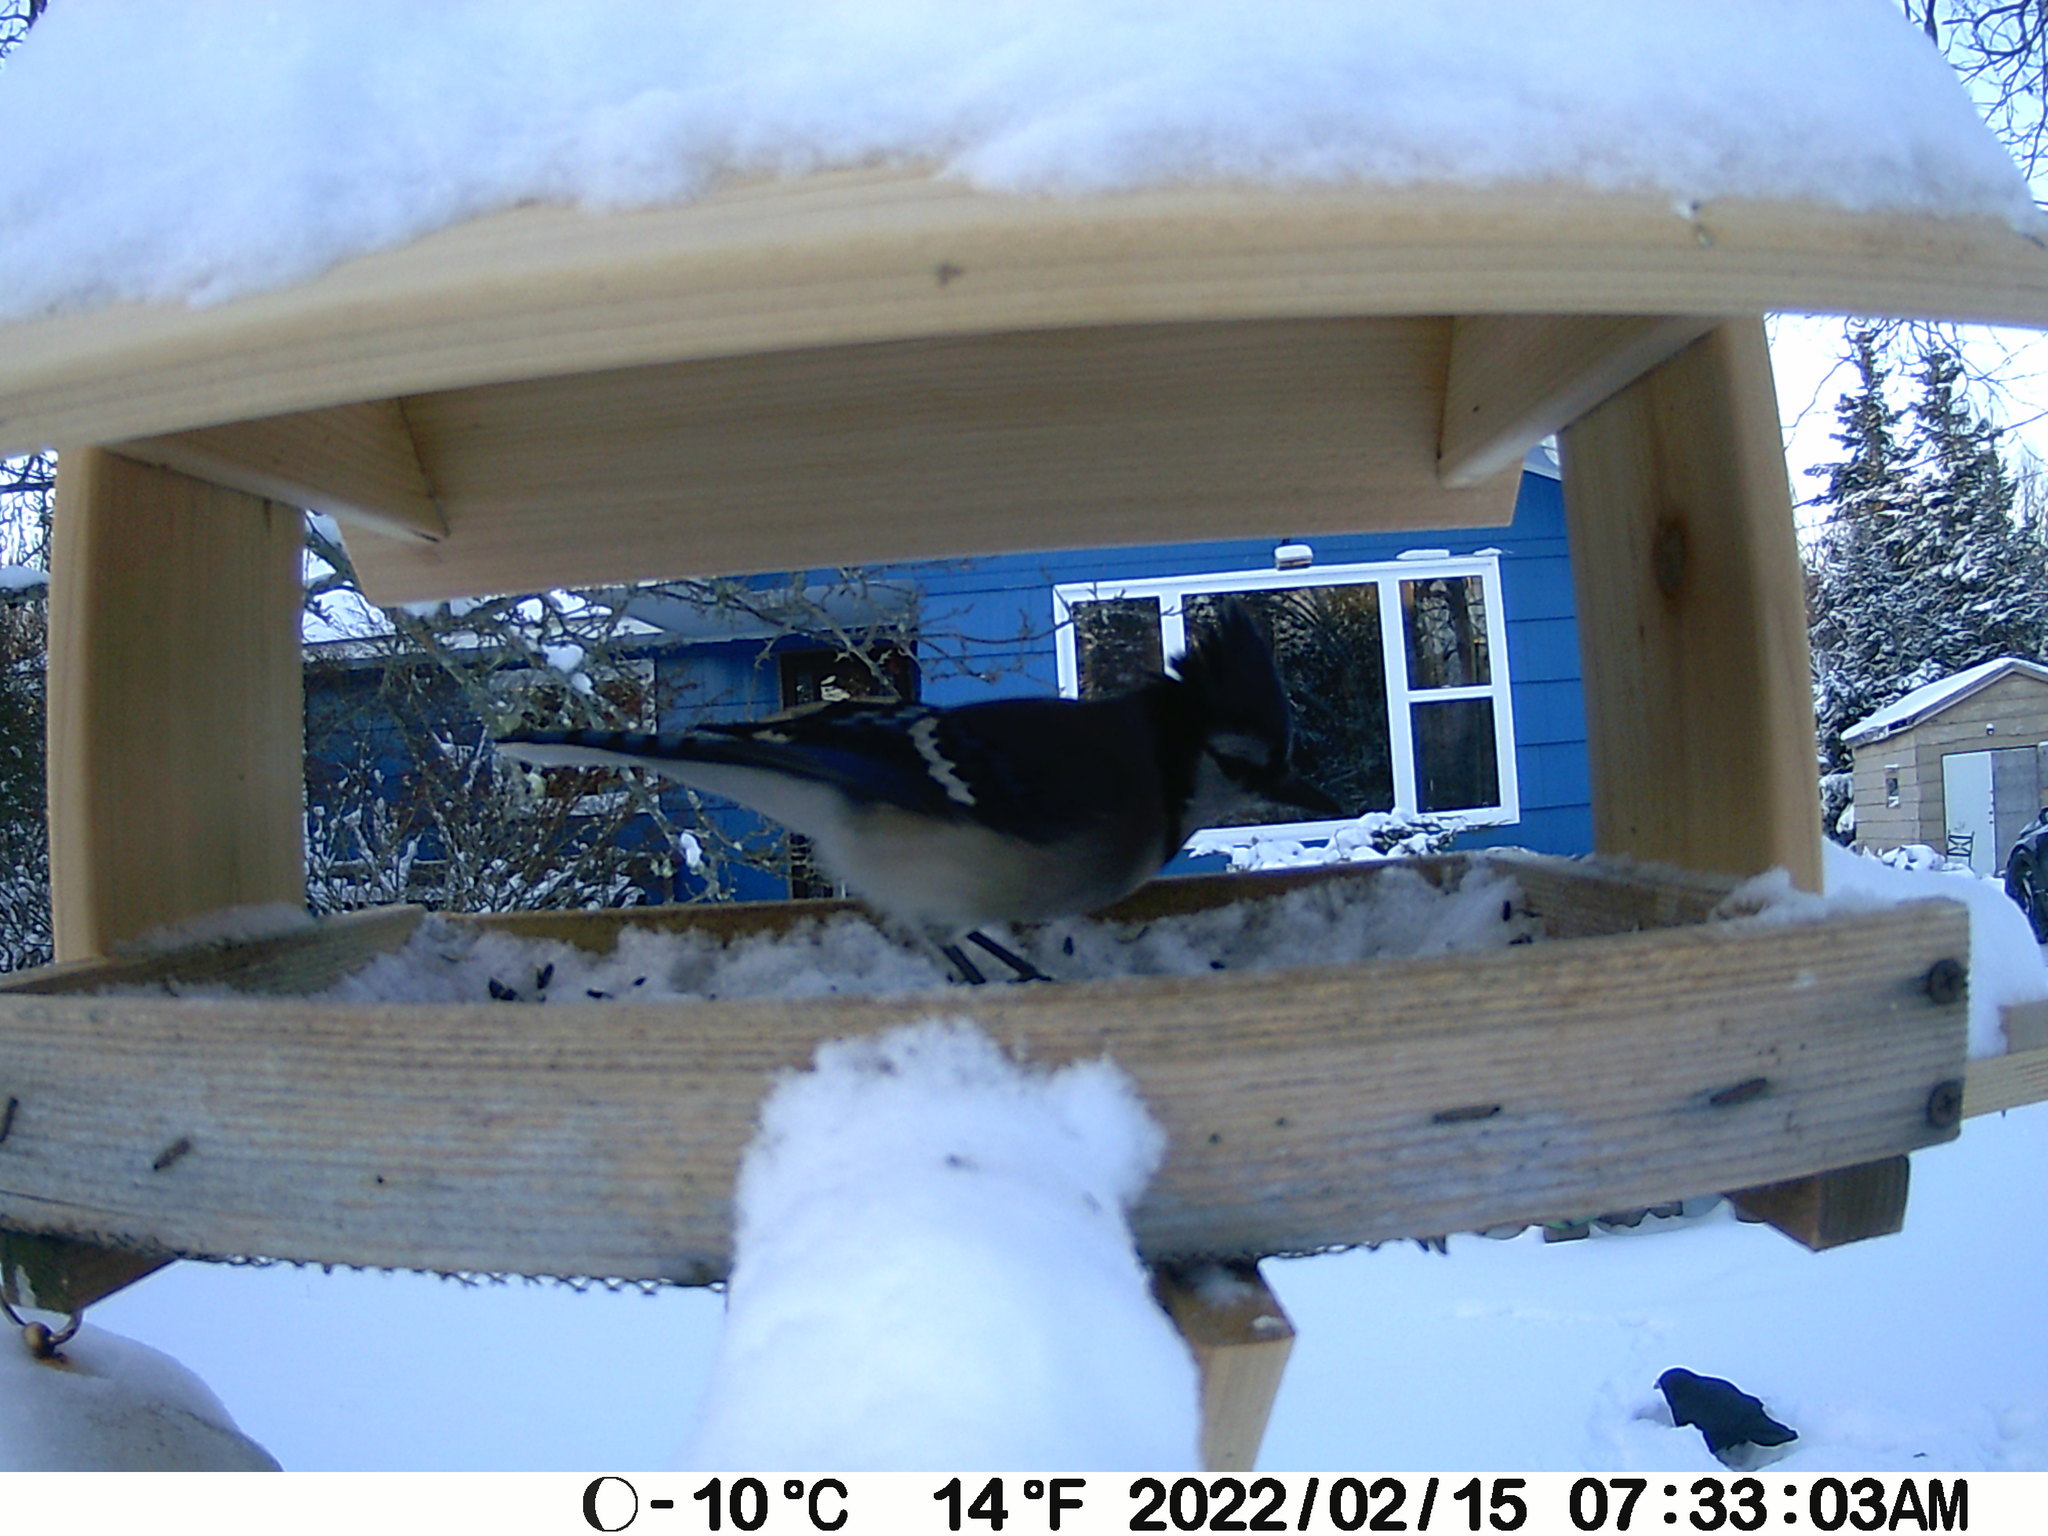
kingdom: Animalia
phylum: Chordata
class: Aves
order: Passeriformes
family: Corvidae
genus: Cyanocitta
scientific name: Cyanocitta cristata
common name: Blue jay
